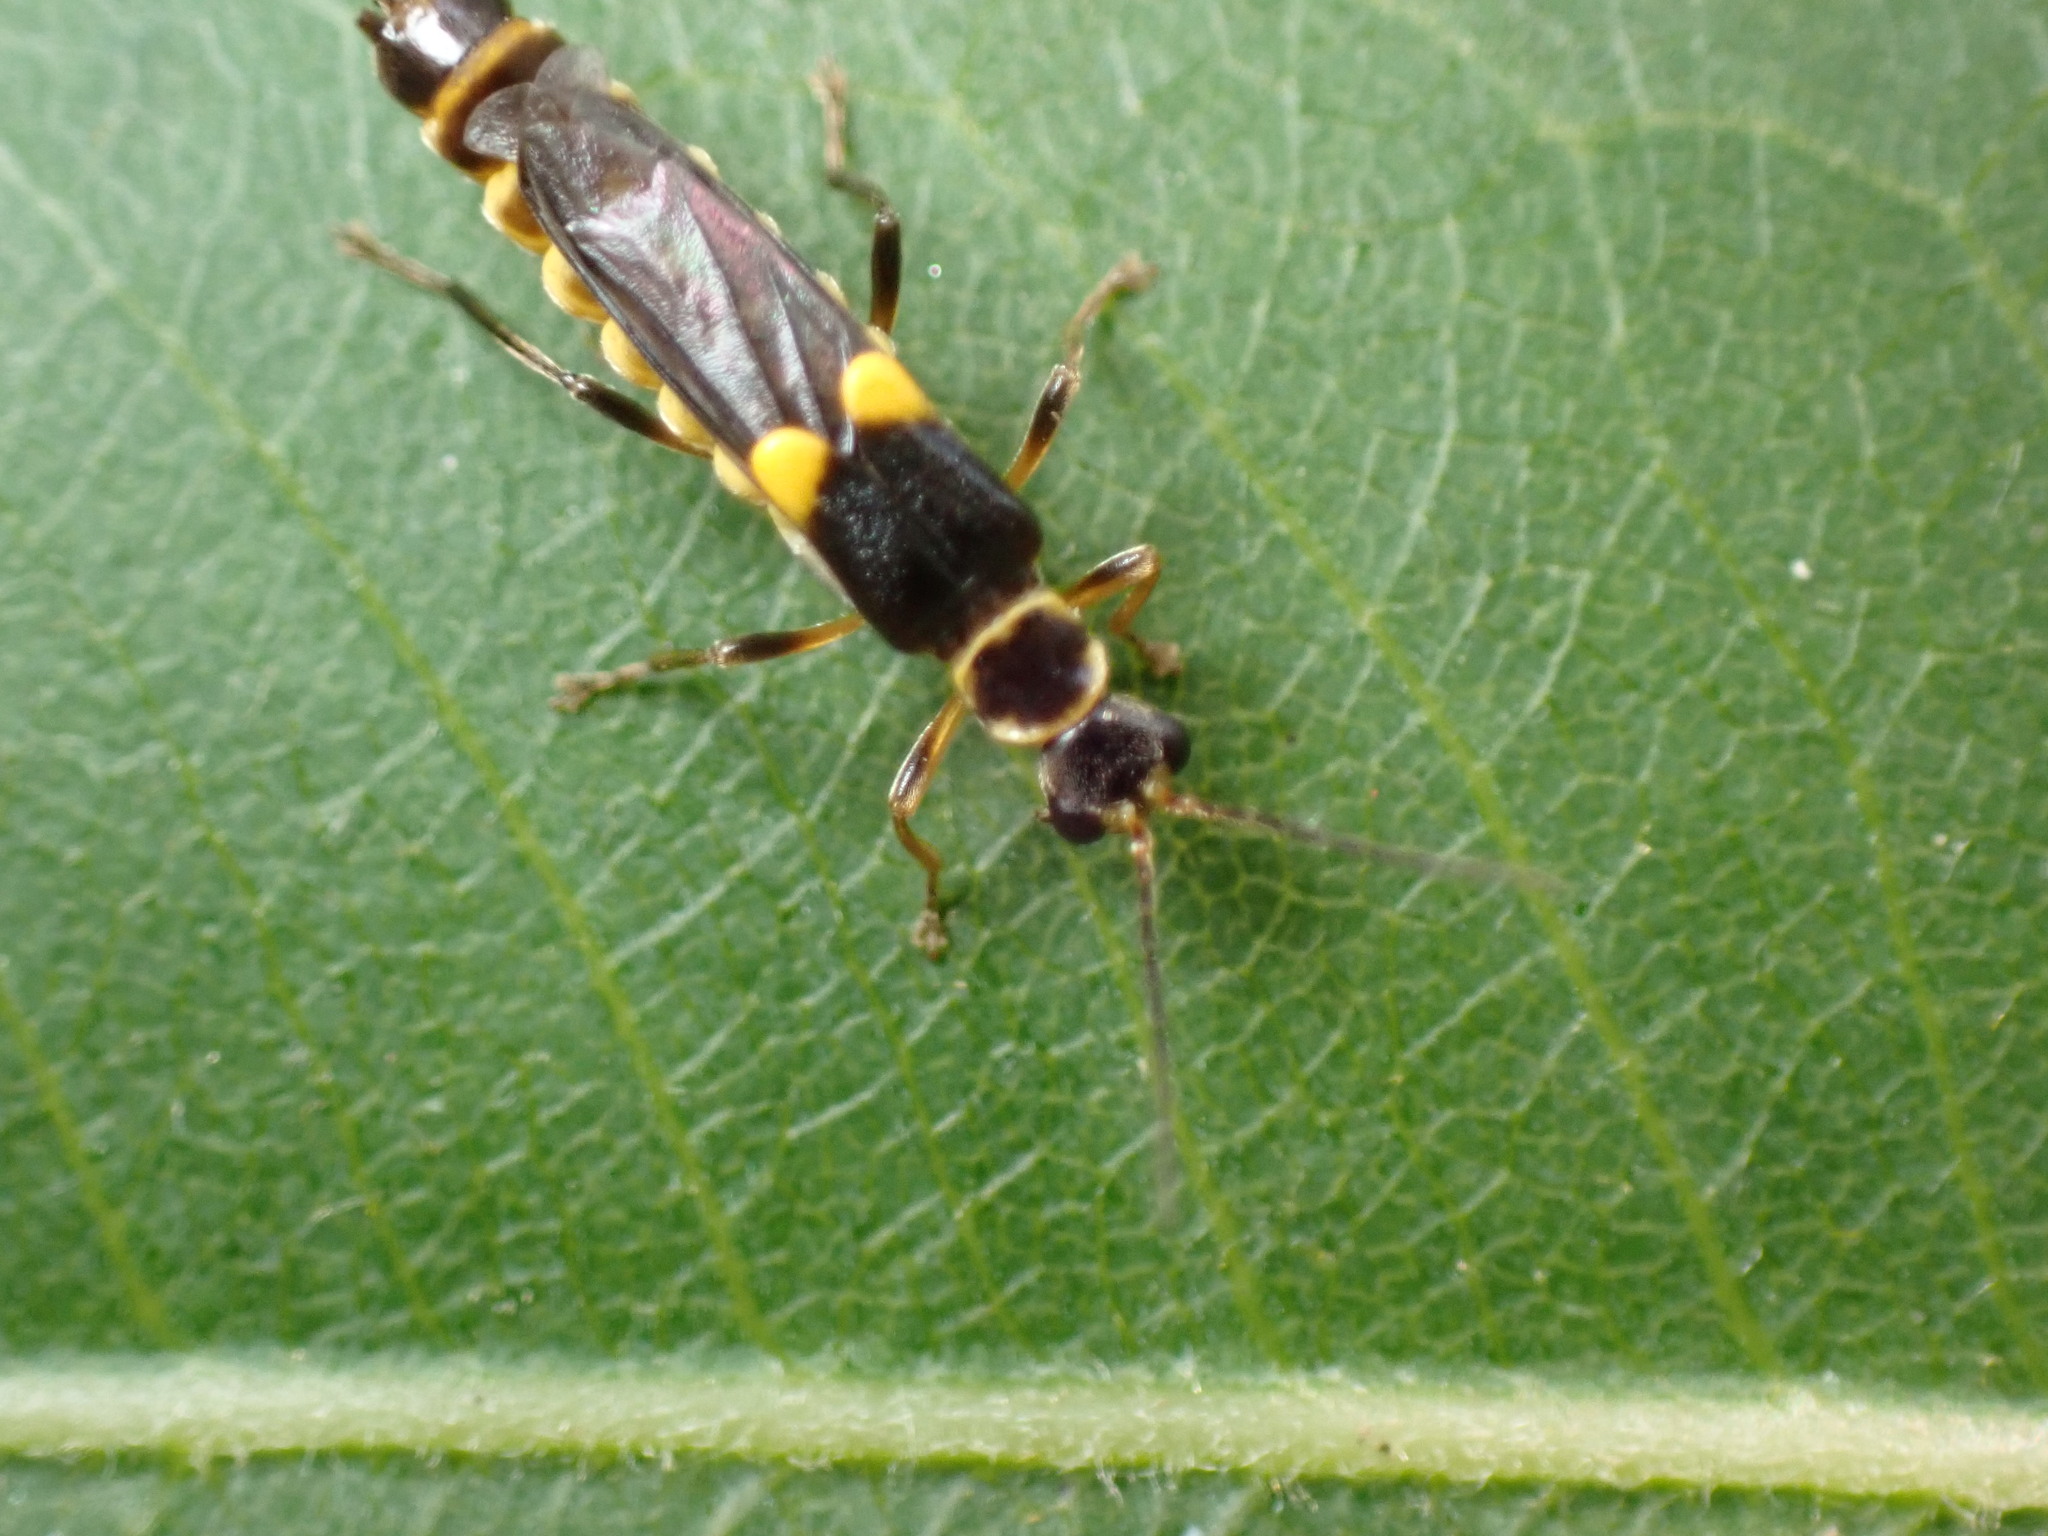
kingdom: Animalia
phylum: Arthropoda
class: Insecta
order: Coleoptera
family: Cantharidae
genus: Trypherus
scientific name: Trypherus frisoni
